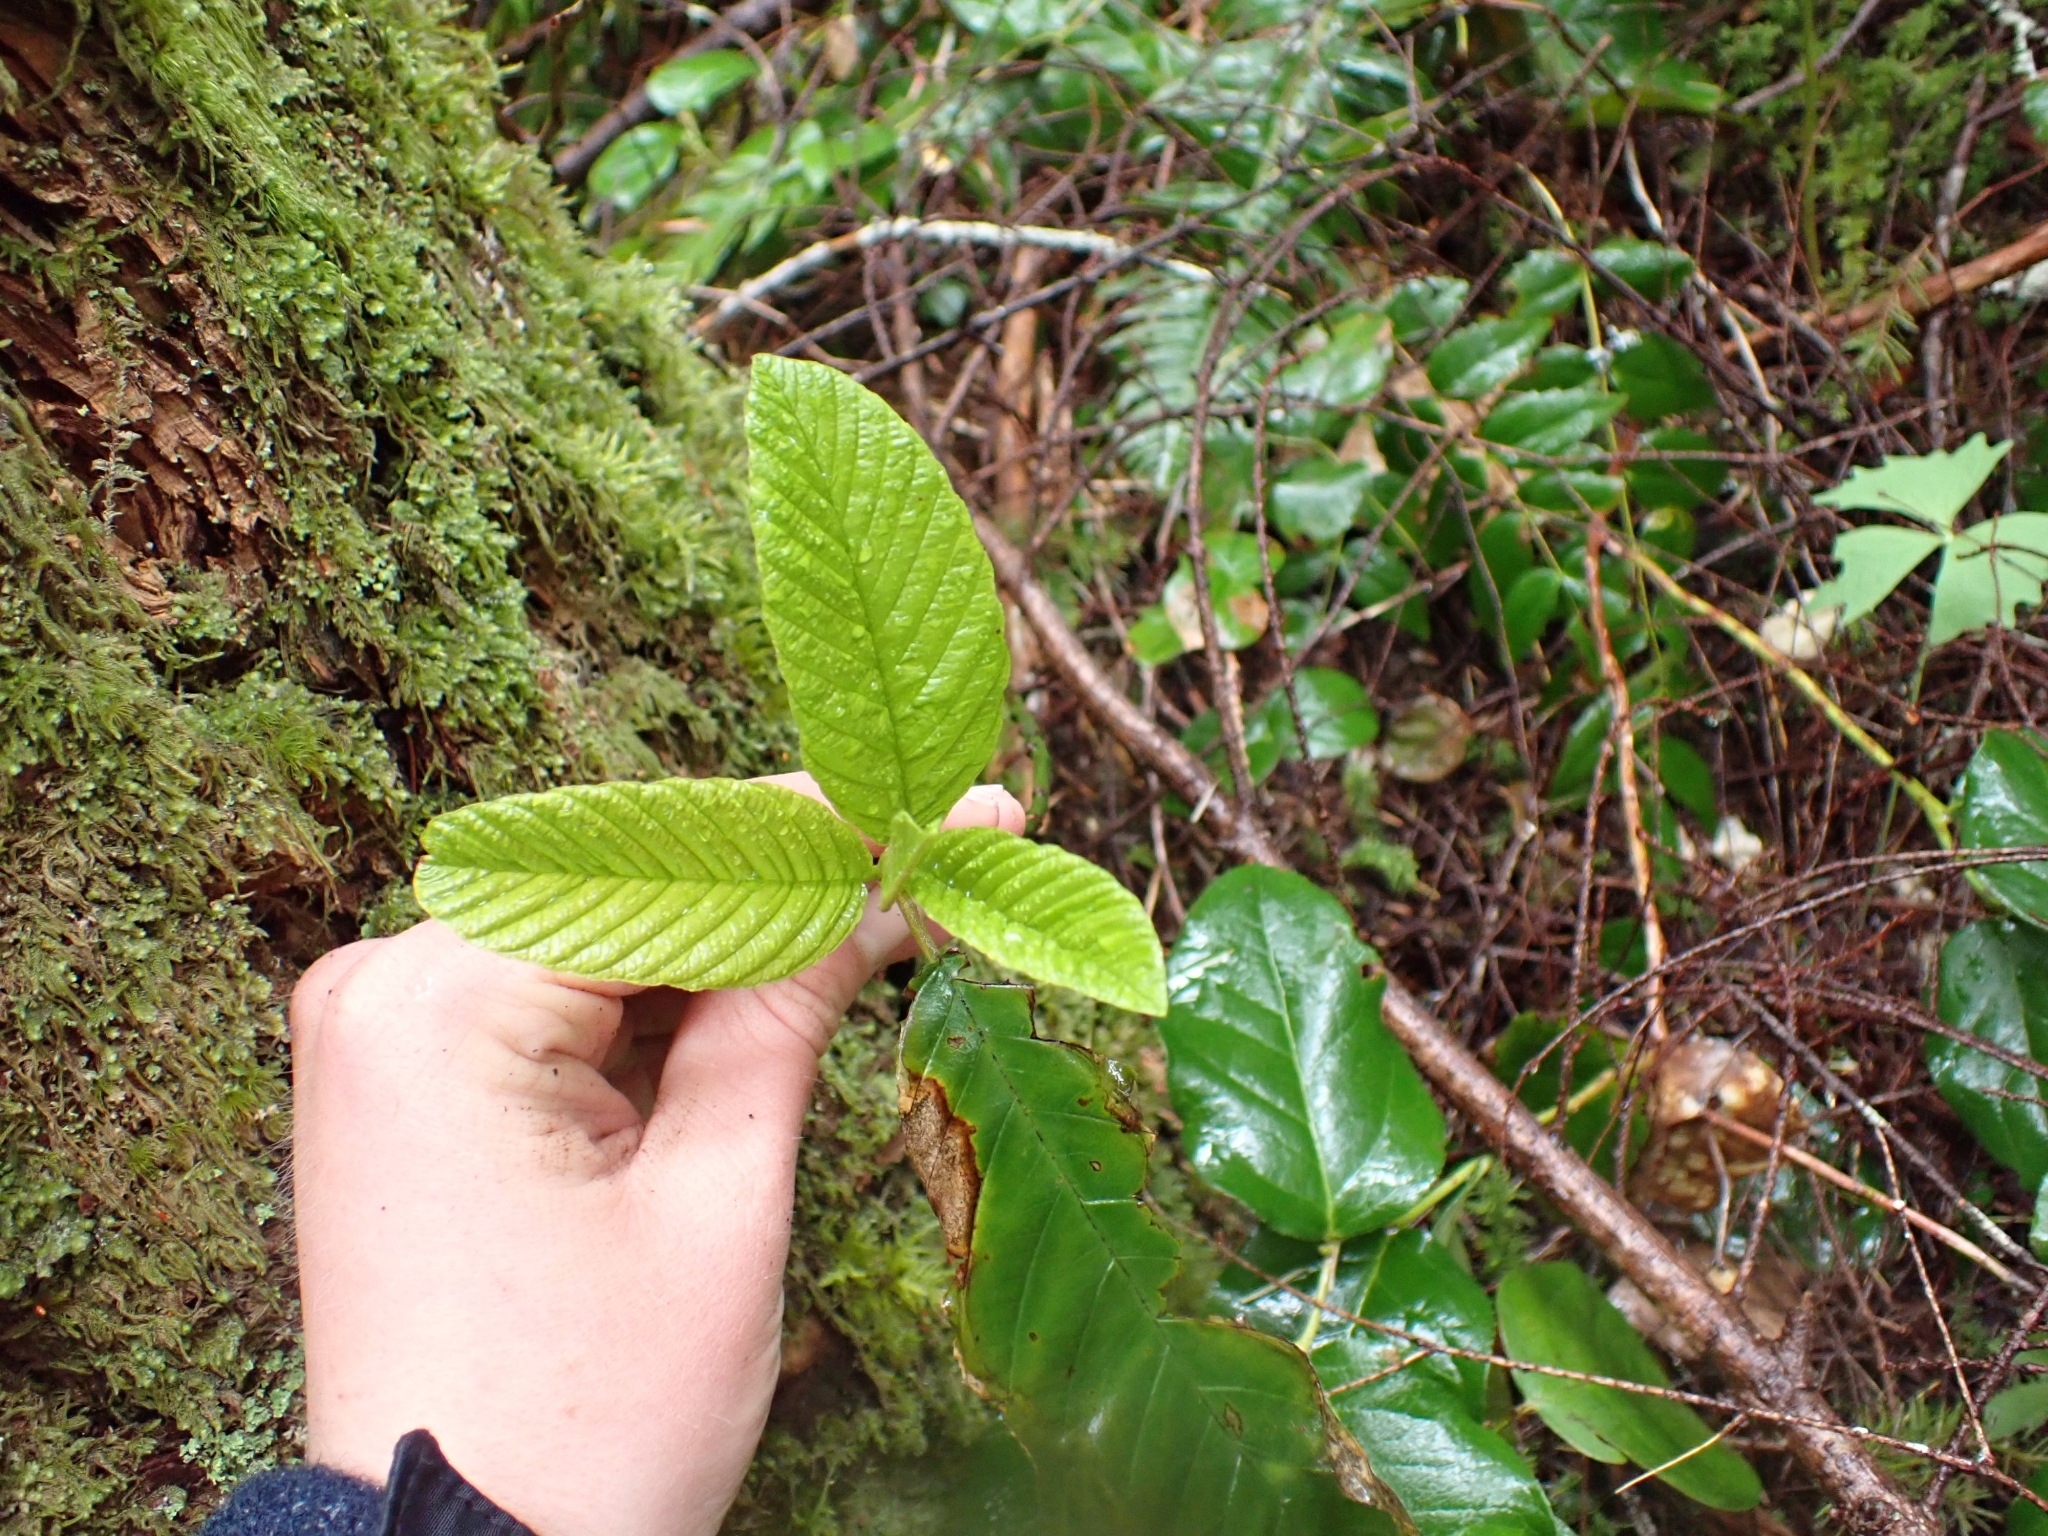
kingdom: Plantae
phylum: Tracheophyta
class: Magnoliopsida
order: Rosales
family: Rhamnaceae
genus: Frangula
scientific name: Frangula purshiana
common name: Cascara buckthorn
